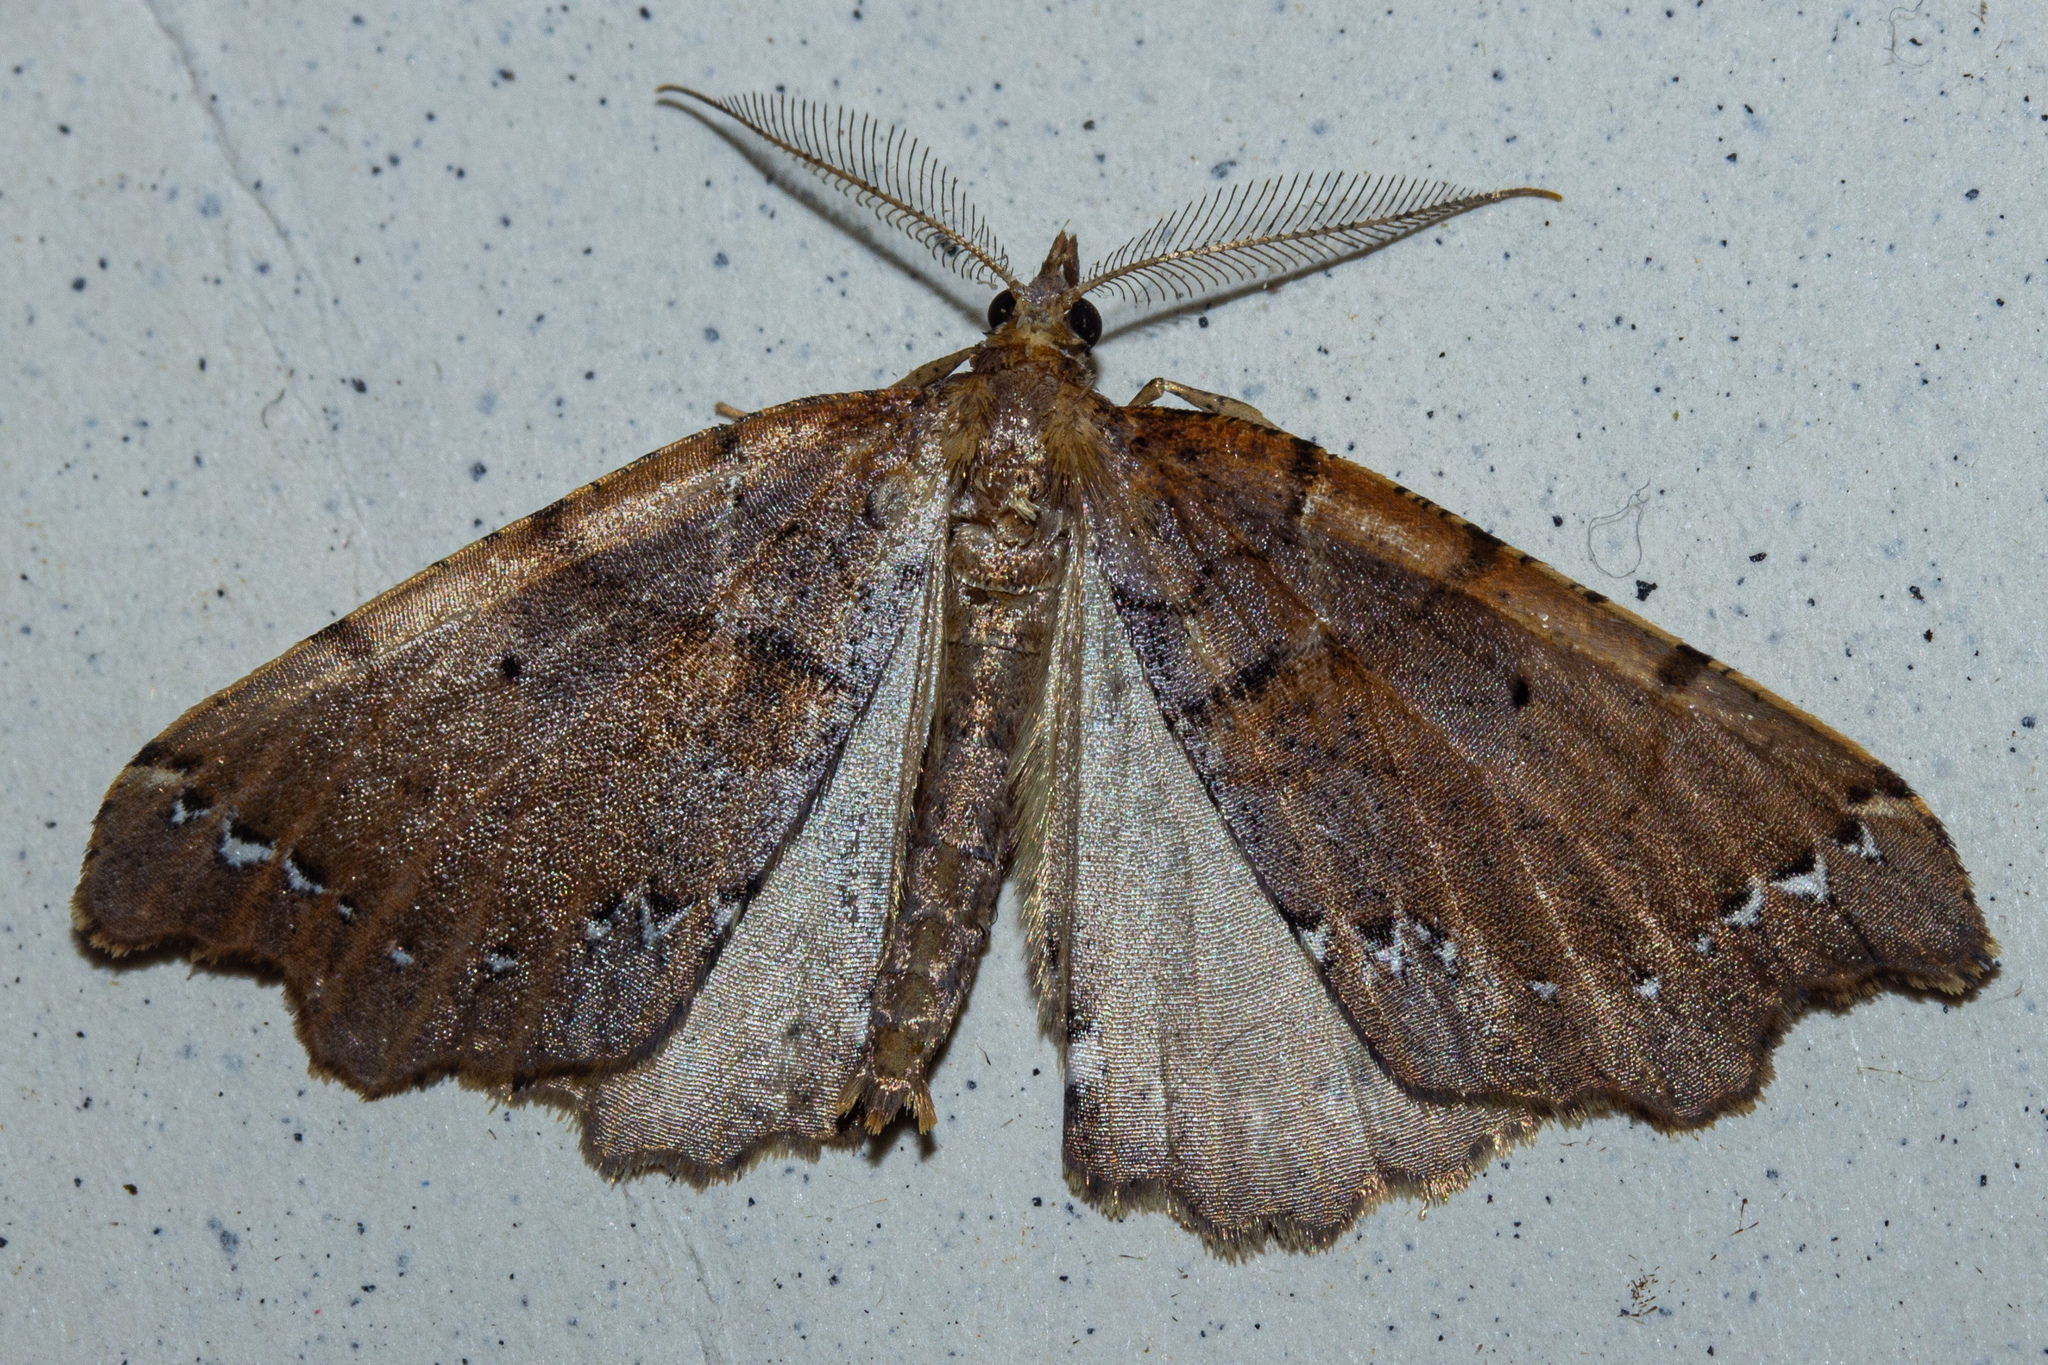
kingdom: Animalia
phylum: Arthropoda
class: Insecta
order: Lepidoptera
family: Geometridae
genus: Chalastra
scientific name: Chalastra pellurgata
